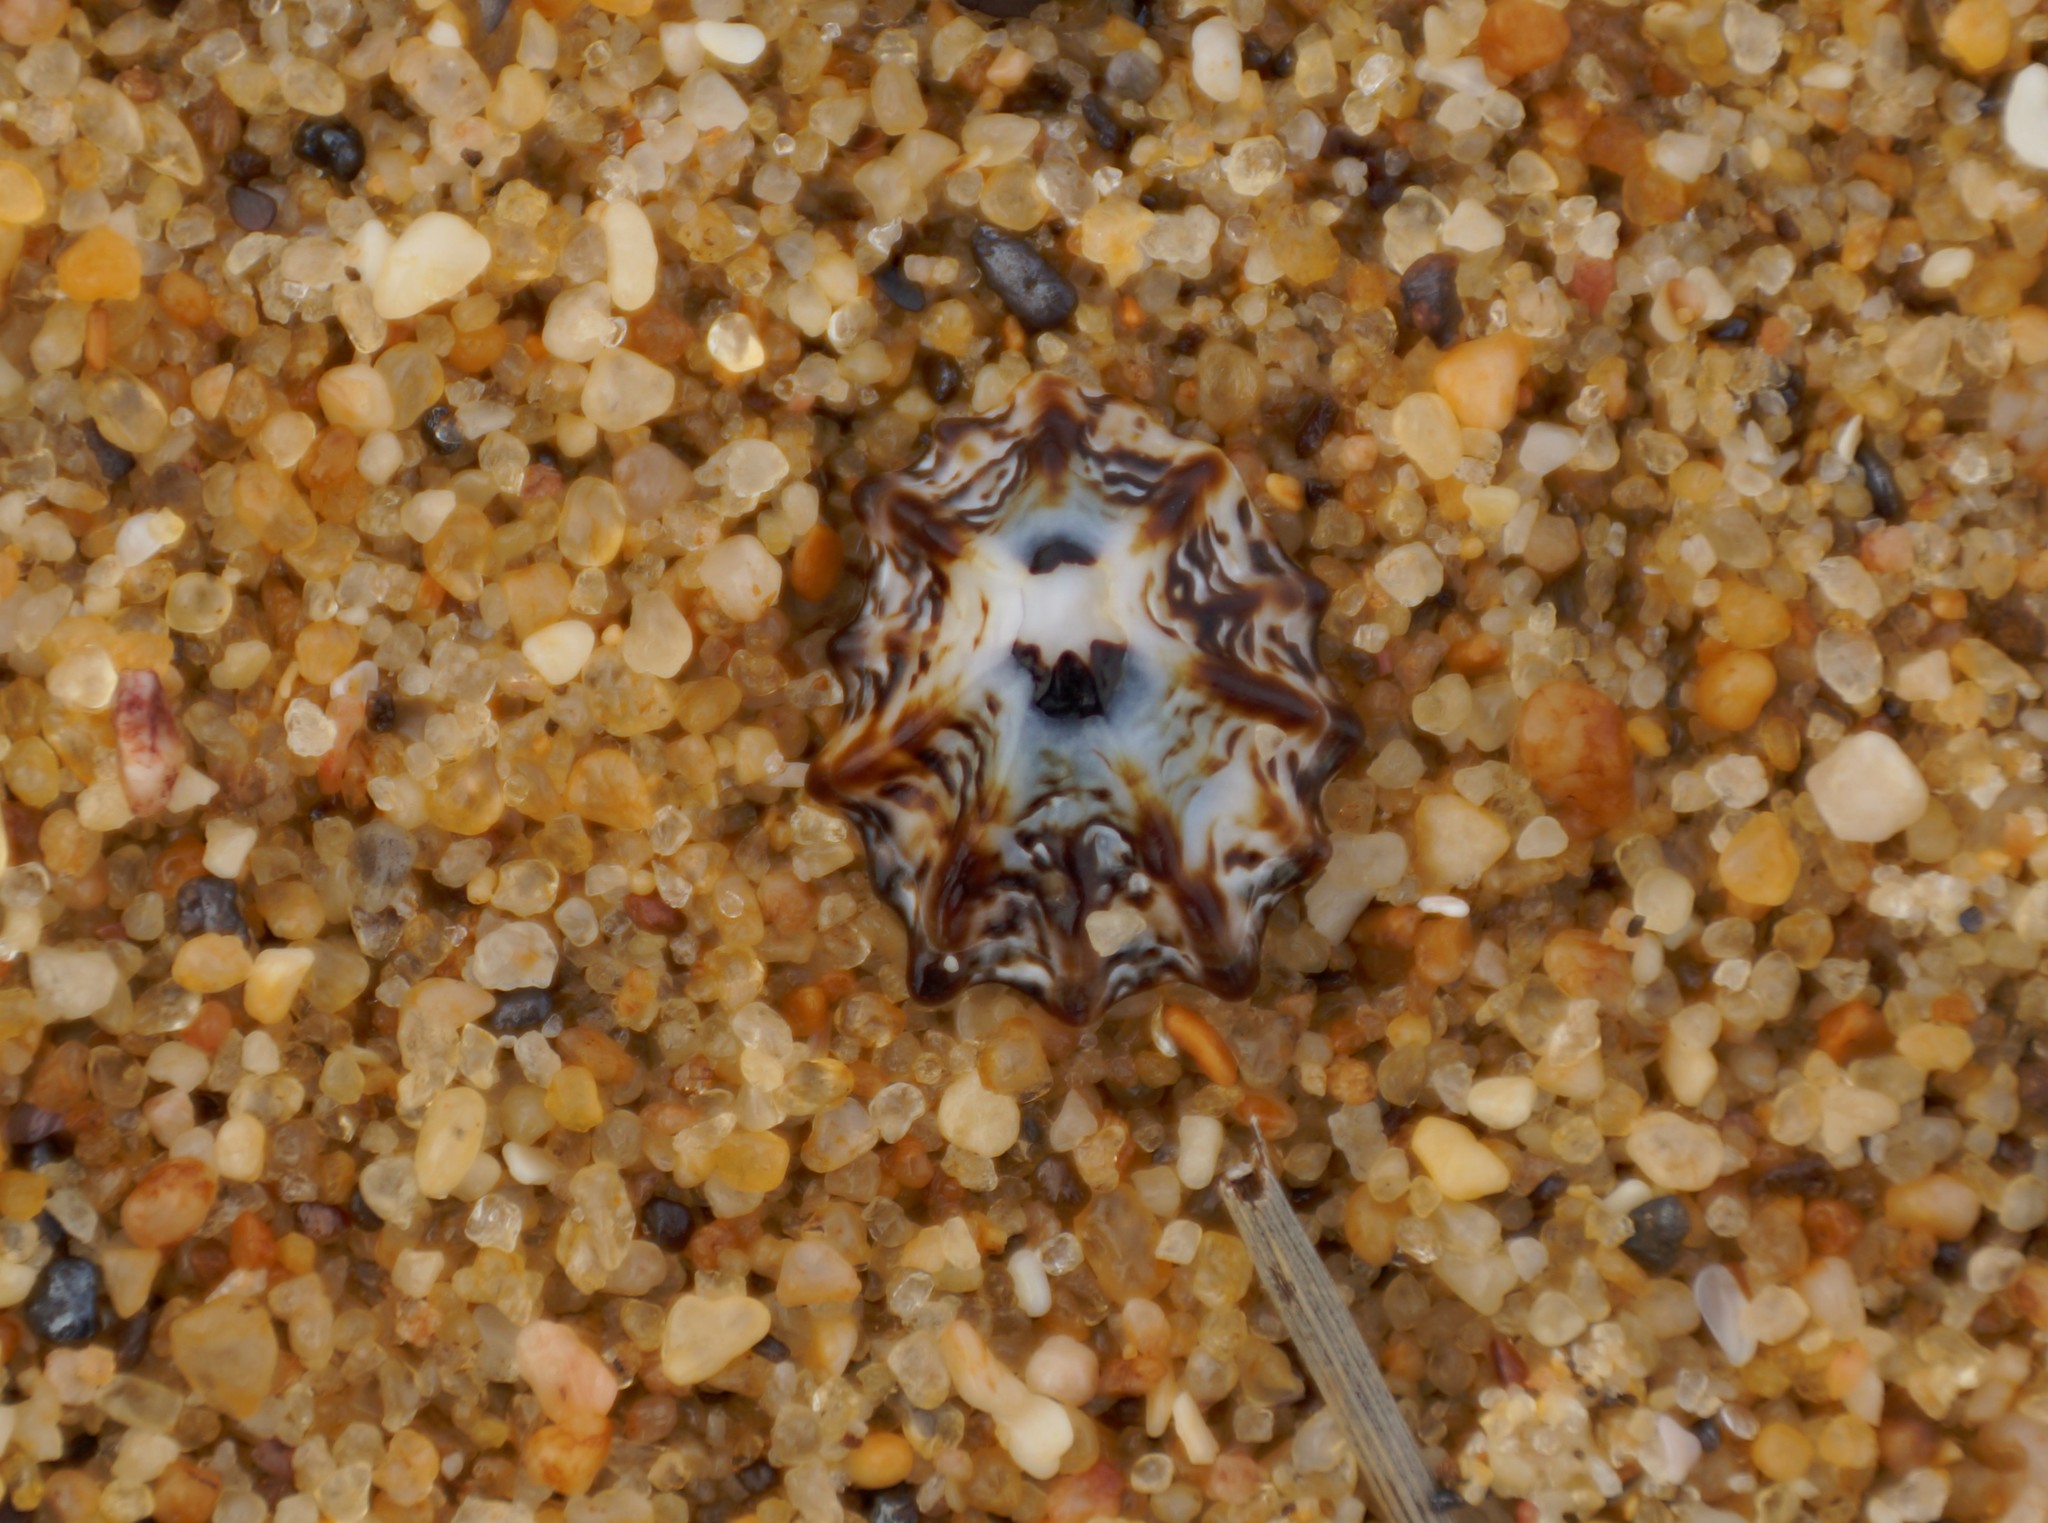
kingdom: Animalia
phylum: Mollusca
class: Gastropoda
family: Lottiidae
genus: Patelloida
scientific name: Patelloida alticostata
